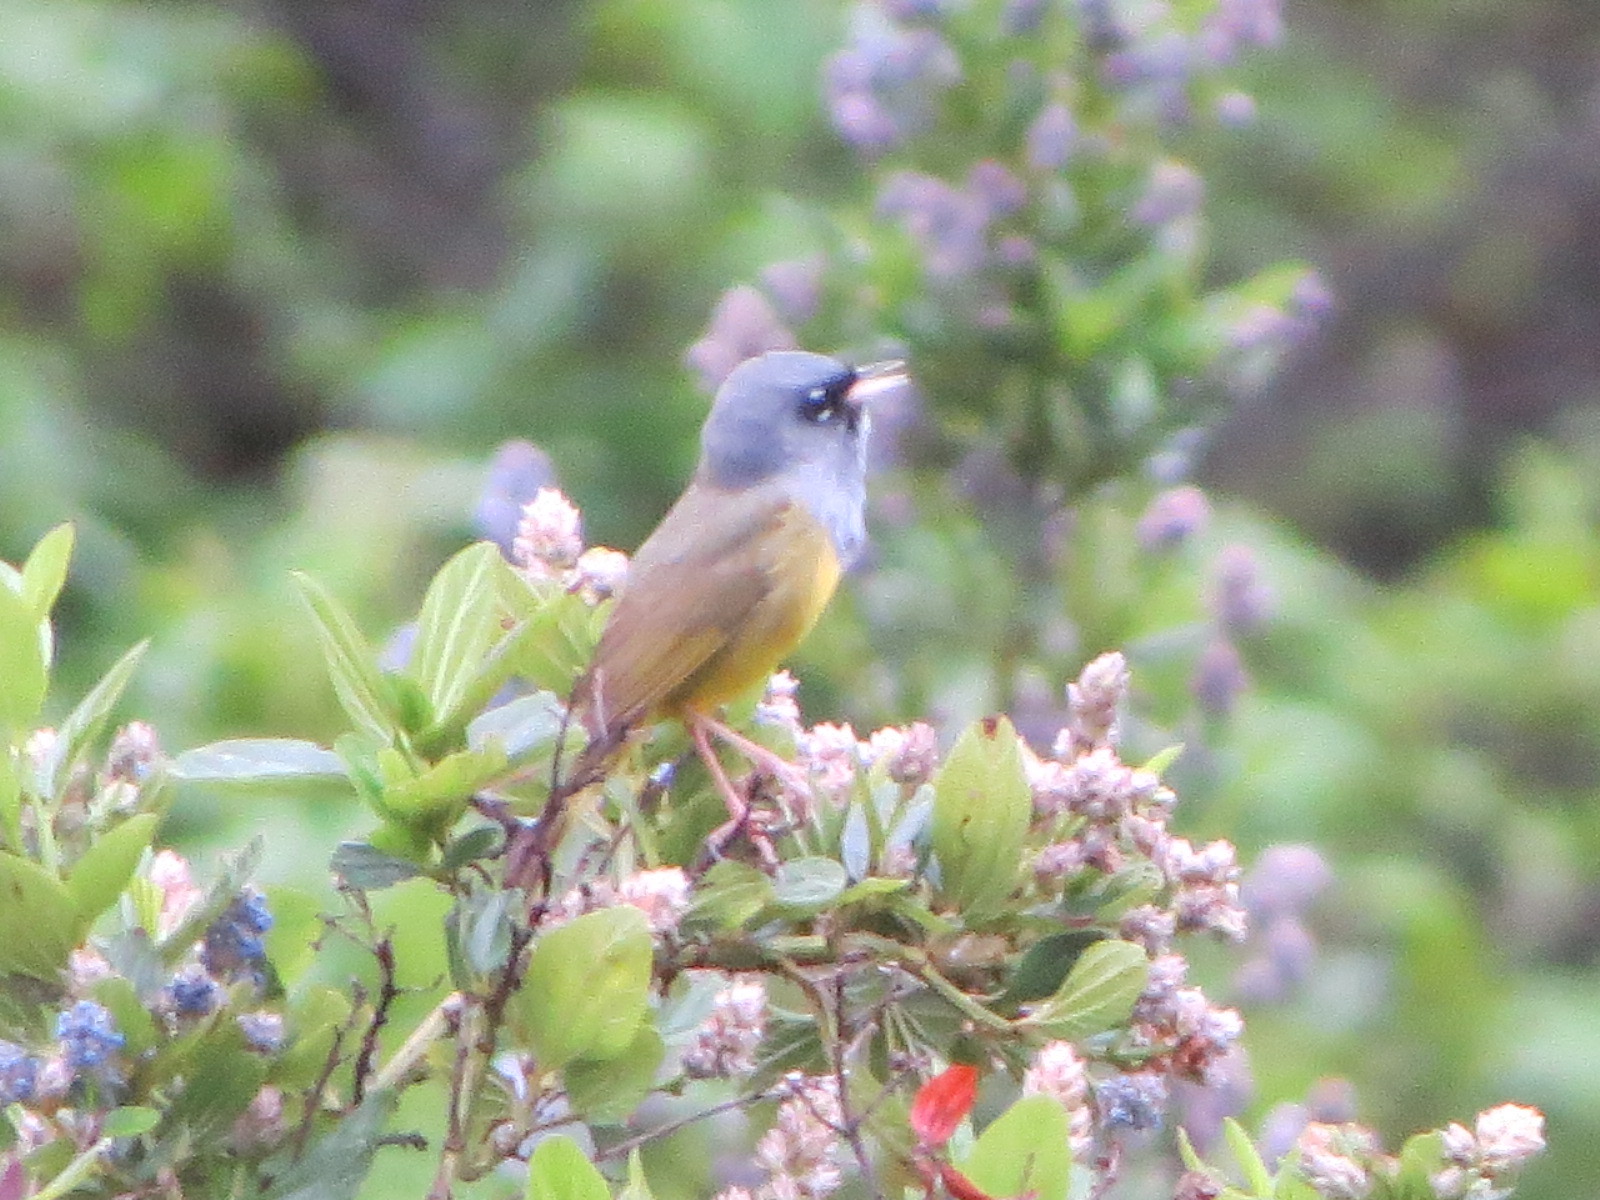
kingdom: Animalia
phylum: Chordata
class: Aves
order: Passeriformes
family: Parulidae
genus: Geothlypis
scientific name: Geothlypis tolmiei
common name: Macgillivray's warbler
